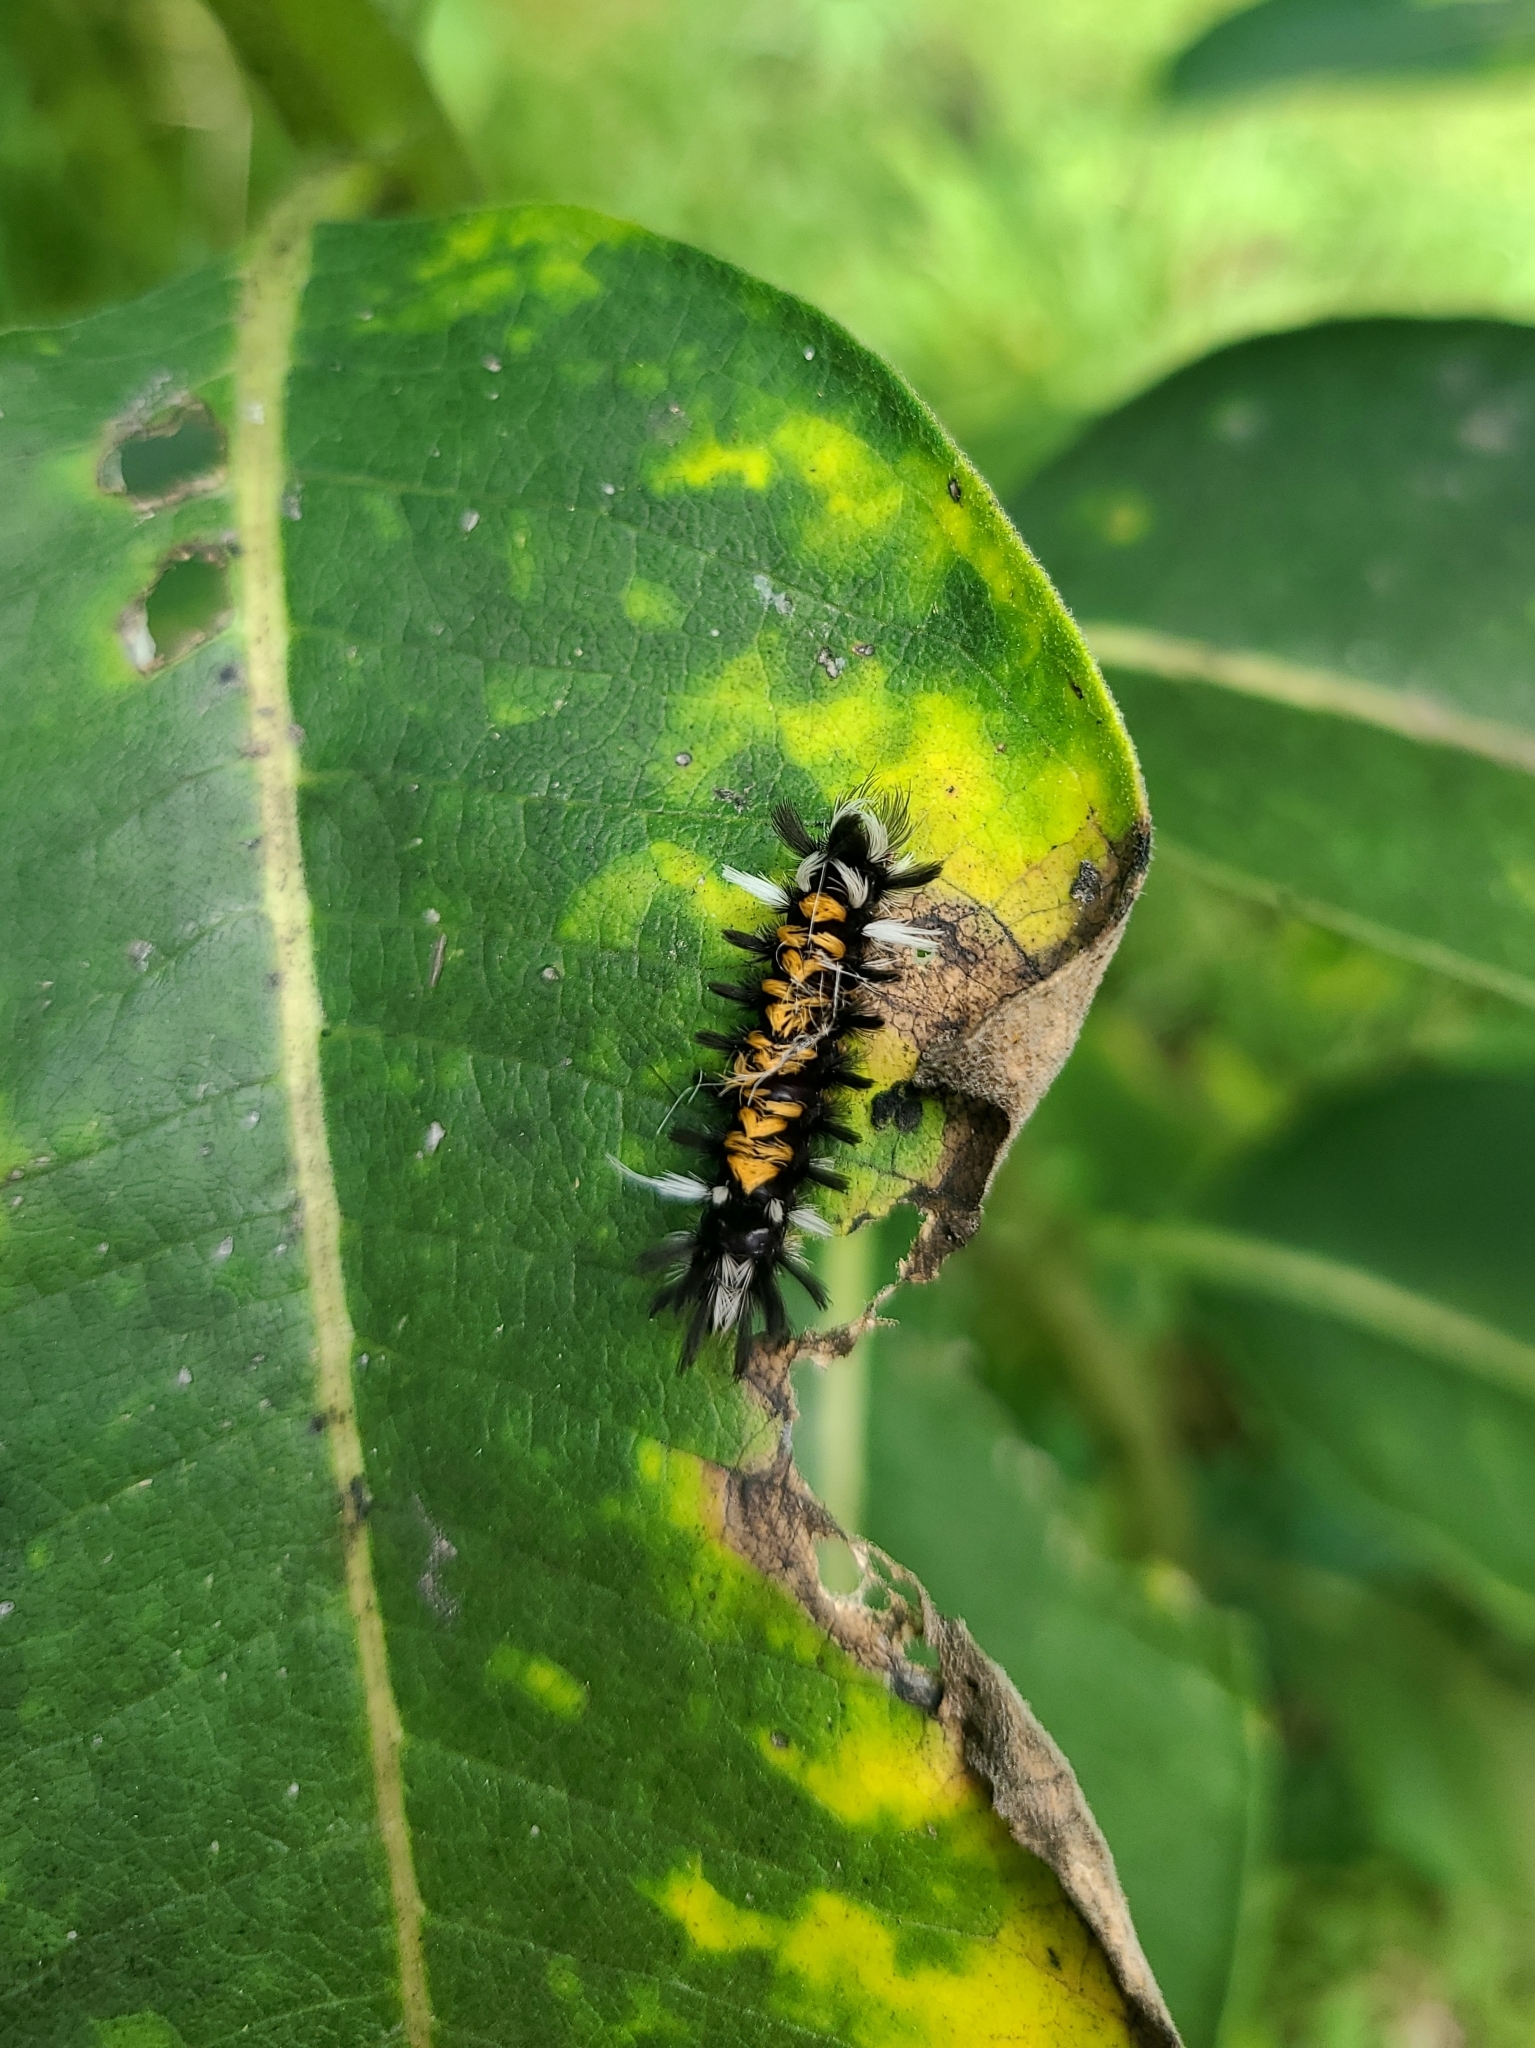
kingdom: Animalia
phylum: Arthropoda
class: Insecta
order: Lepidoptera
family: Erebidae
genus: Euchaetes
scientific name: Euchaetes egle
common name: Milkweed tussock moth
